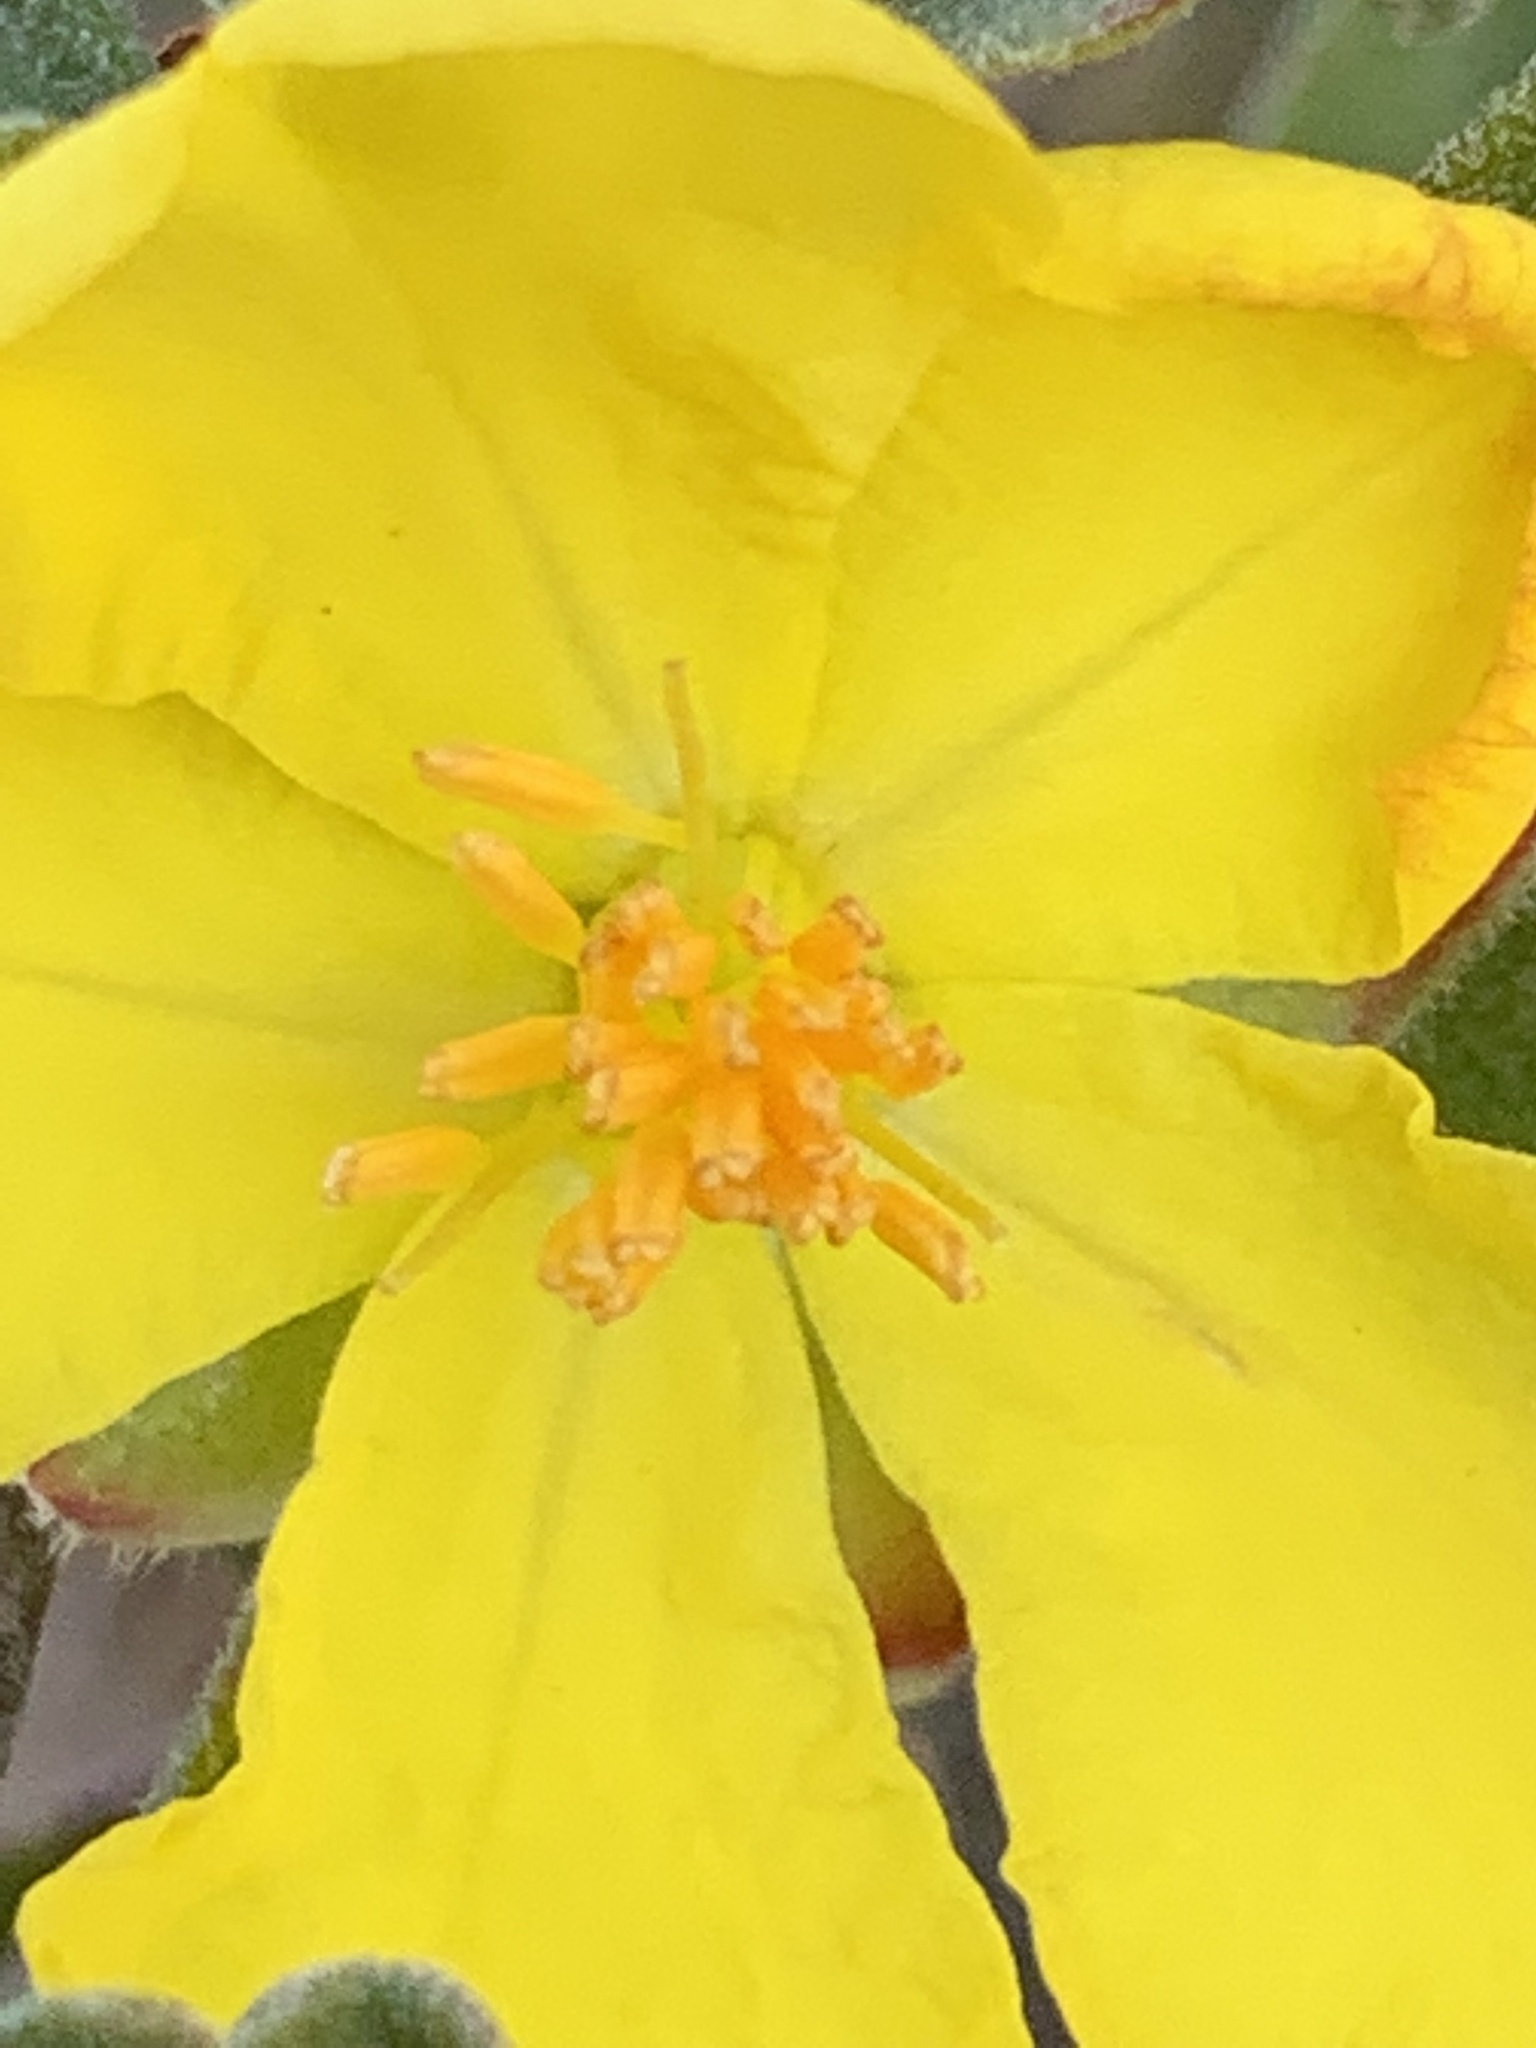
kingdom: Plantae
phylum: Tracheophyta
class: Magnoliopsida
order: Dilleniales
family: Dilleniaceae
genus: Hibbertia
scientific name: Hibbertia obtusifolia
